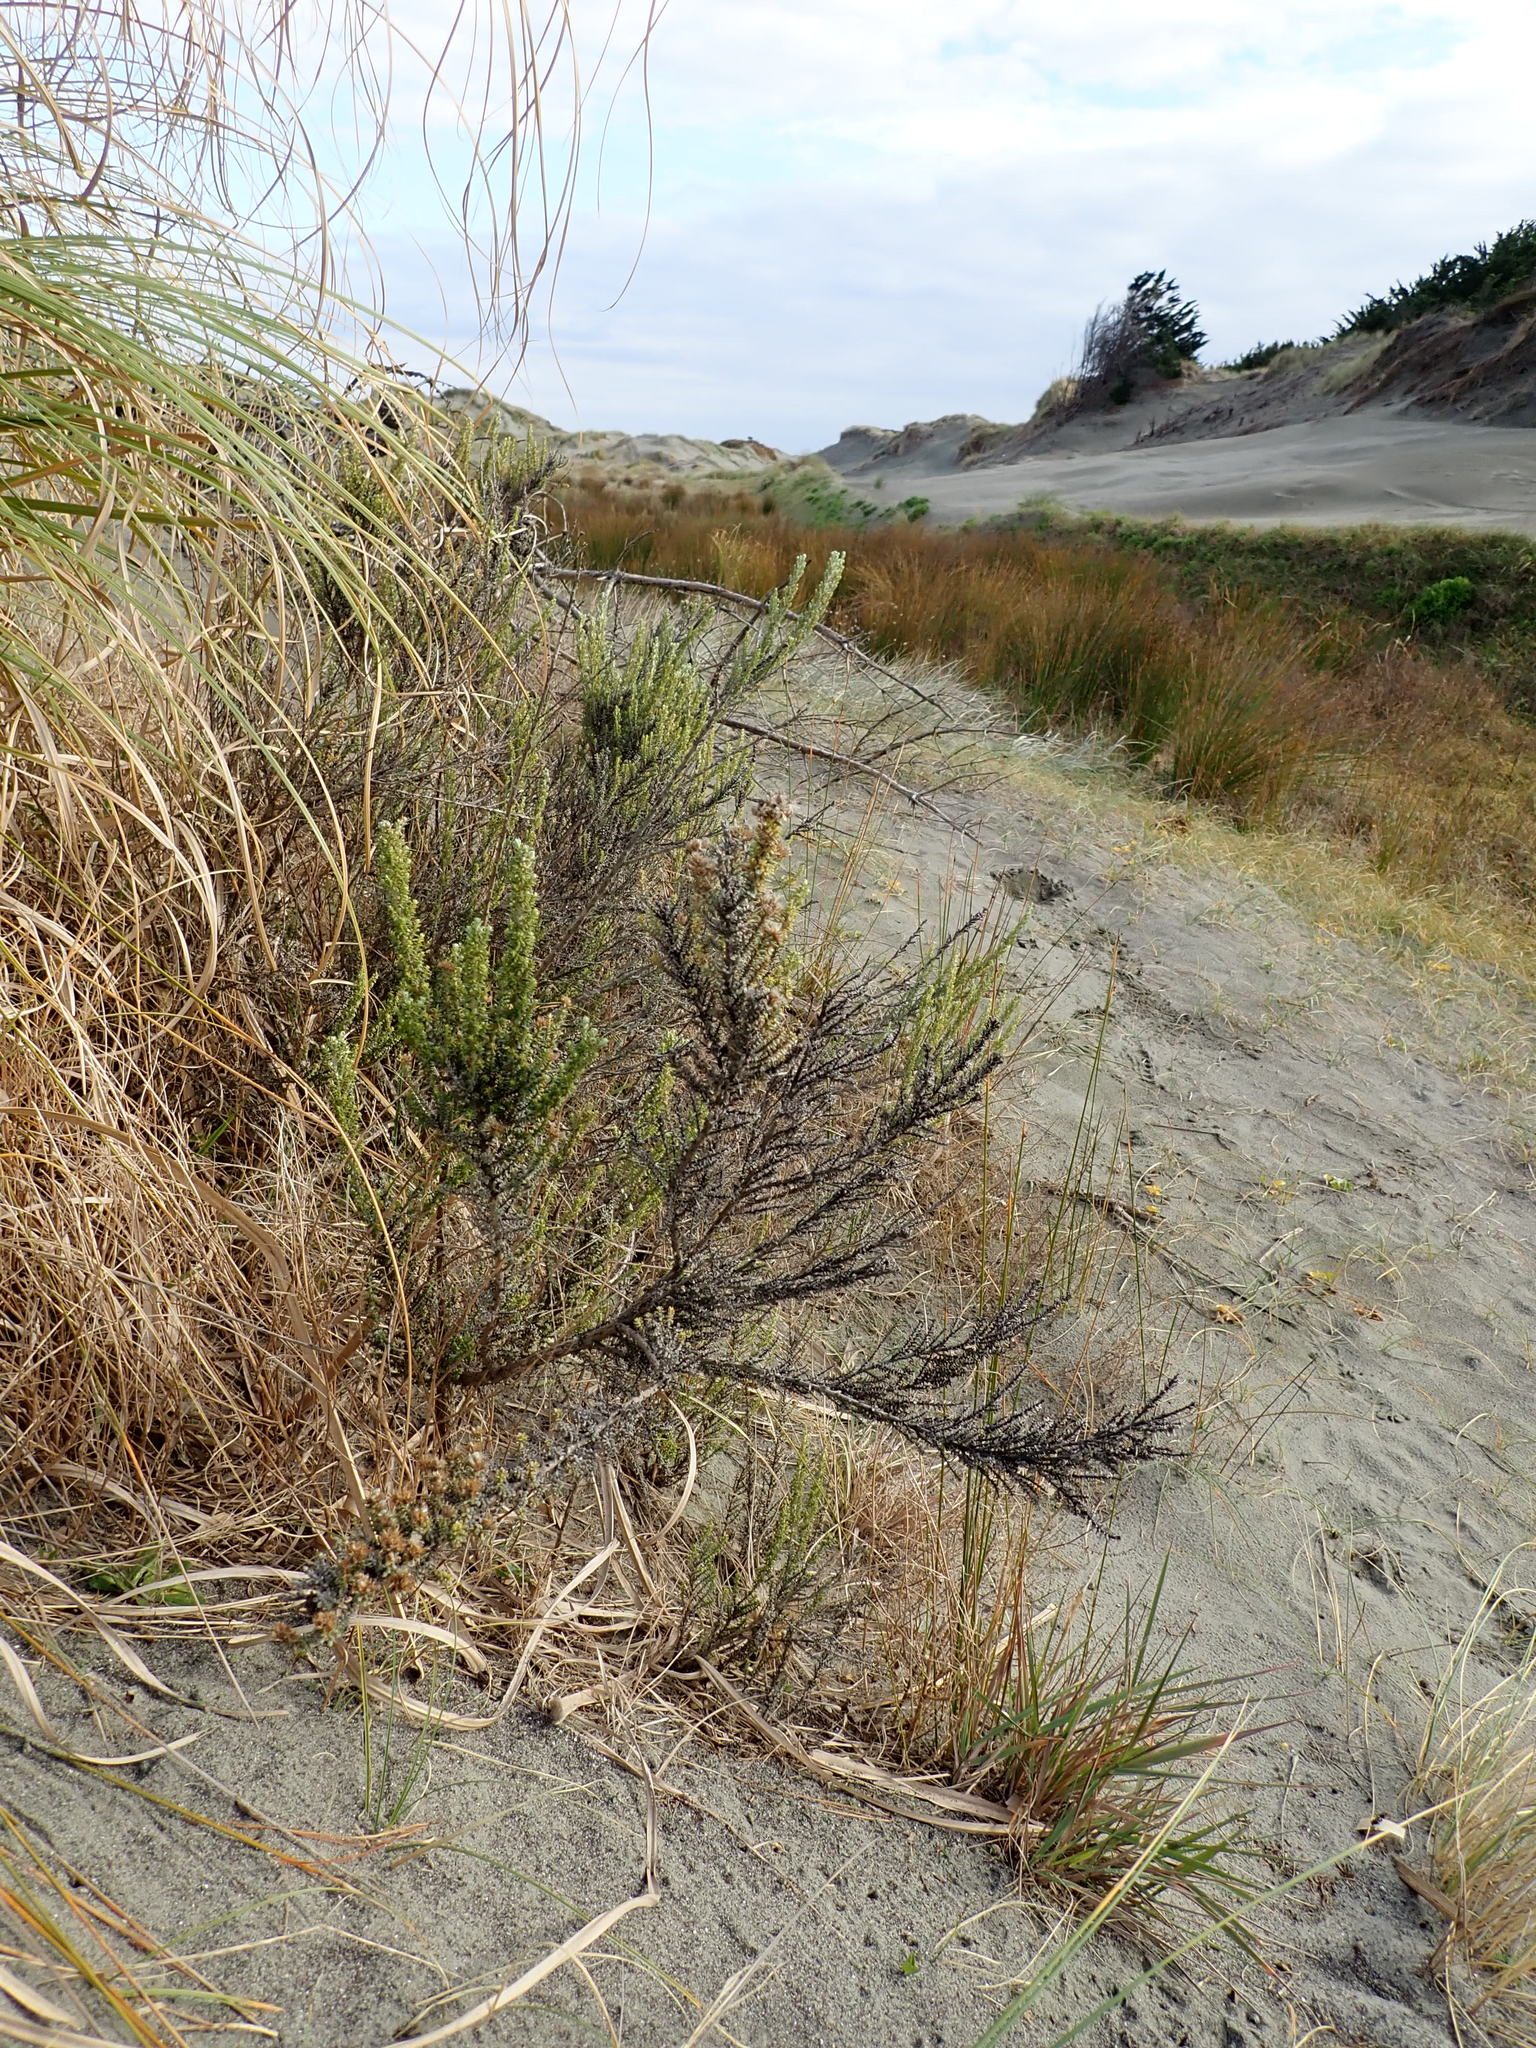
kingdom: Plantae
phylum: Tracheophyta
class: Magnoliopsida
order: Asterales
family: Asteraceae
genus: Ozothamnus
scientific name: Ozothamnus leptophyllus
